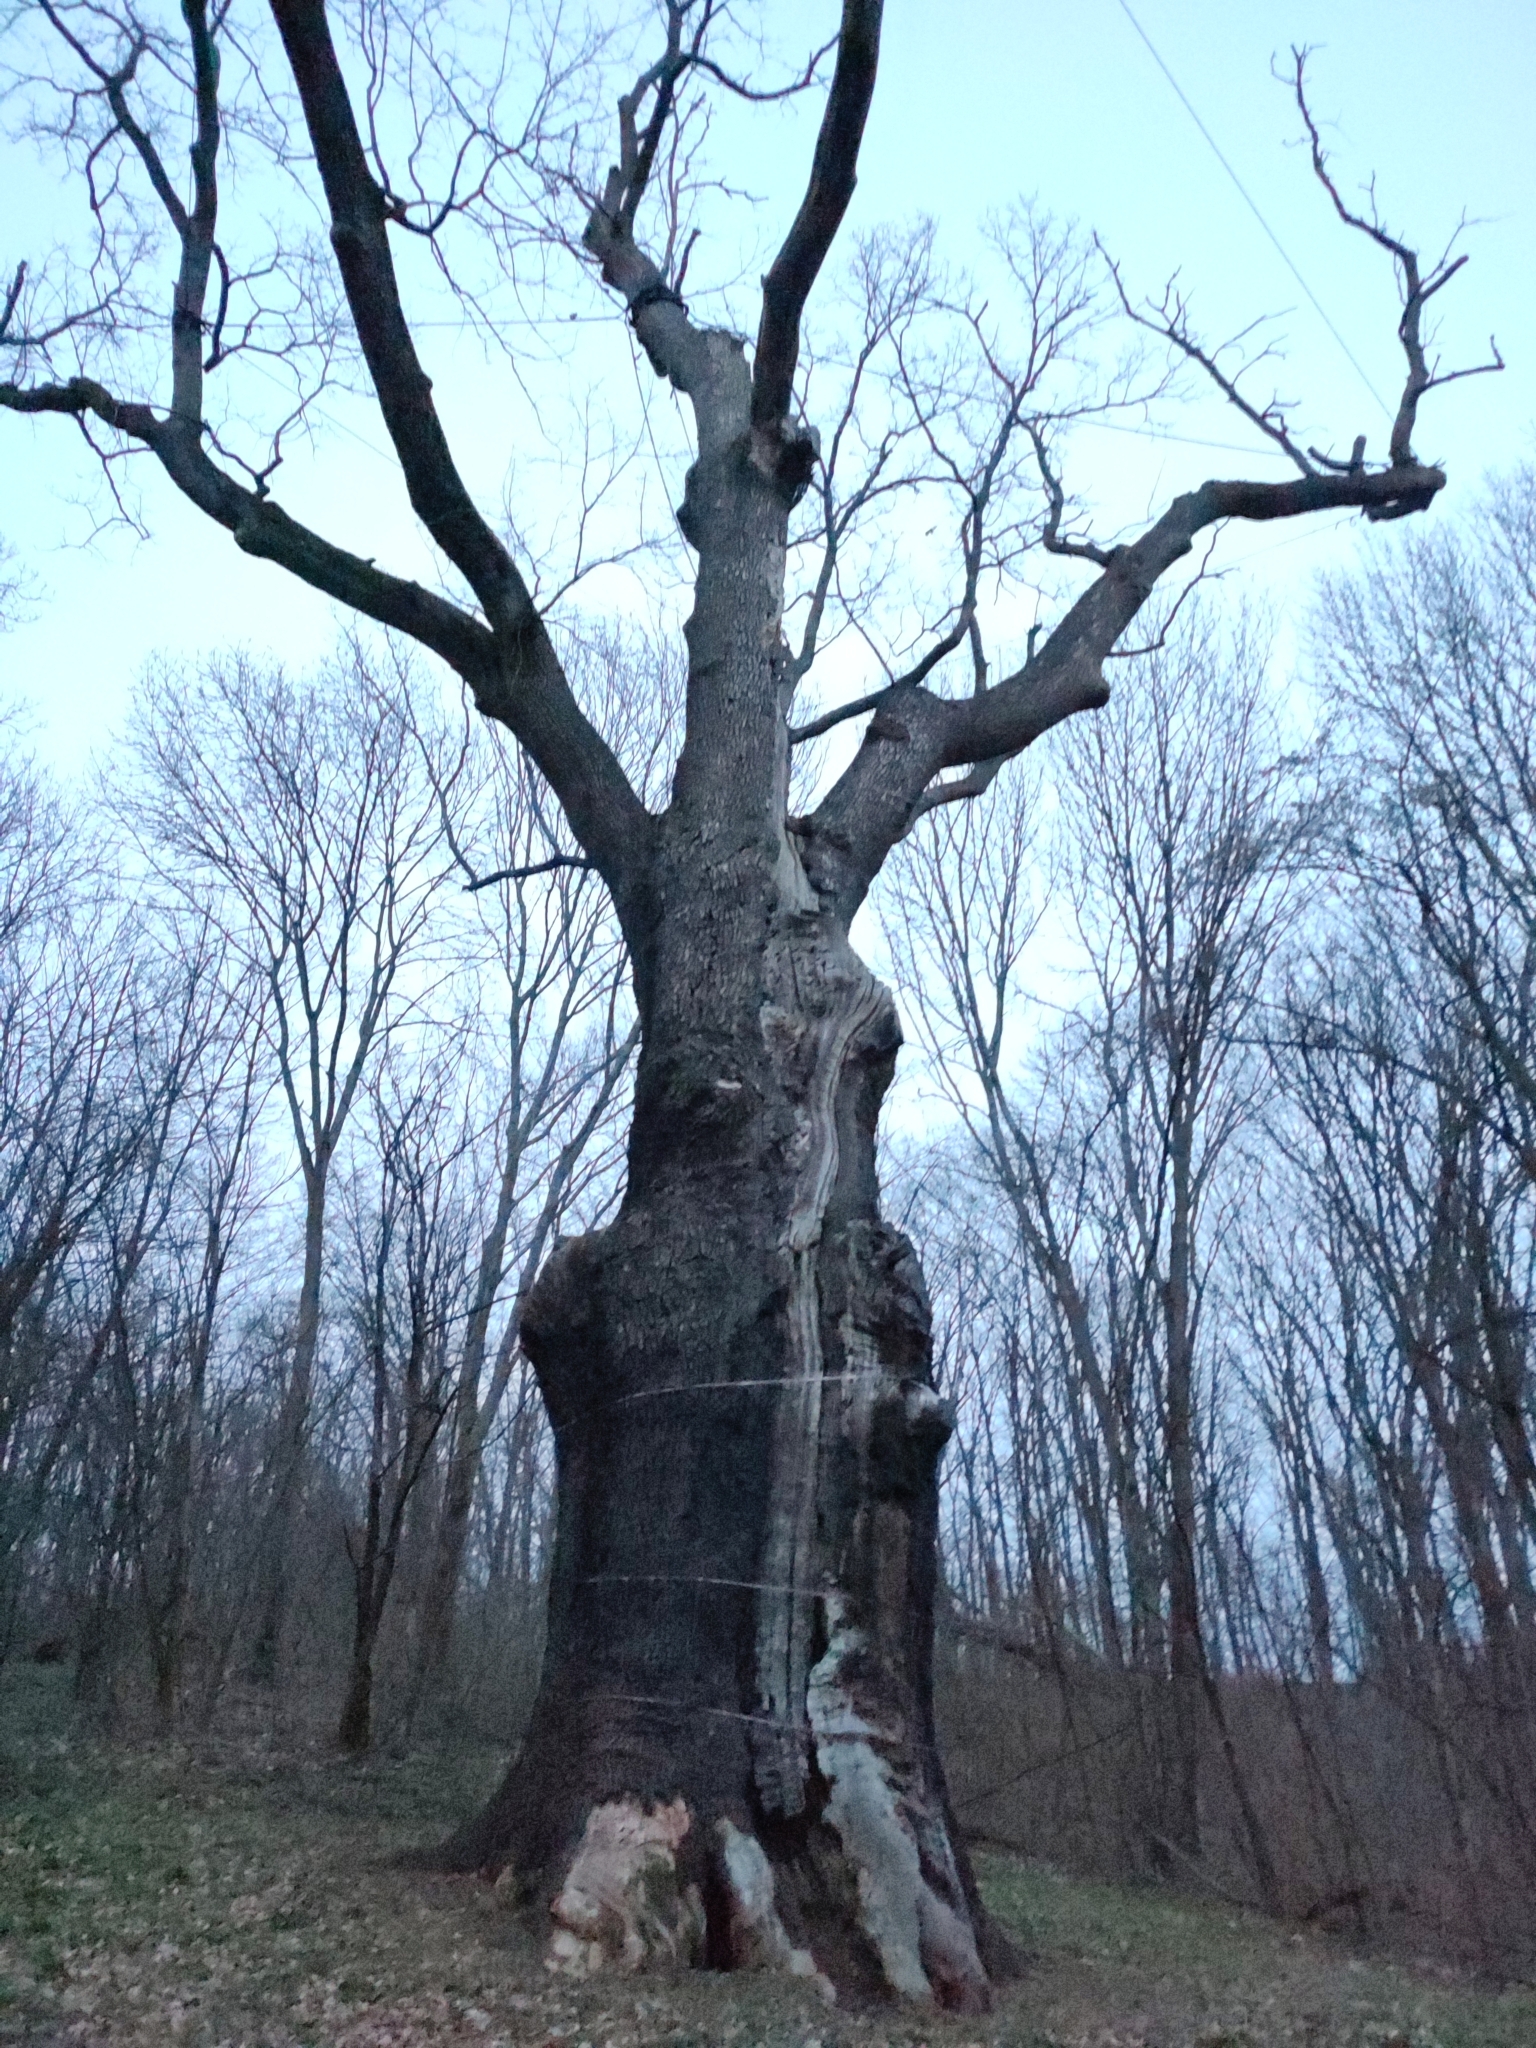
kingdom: Plantae
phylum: Tracheophyta
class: Magnoliopsida
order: Fagales
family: Fagaceae
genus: Quercus
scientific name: Quercus robur
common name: Pedunculate oak
